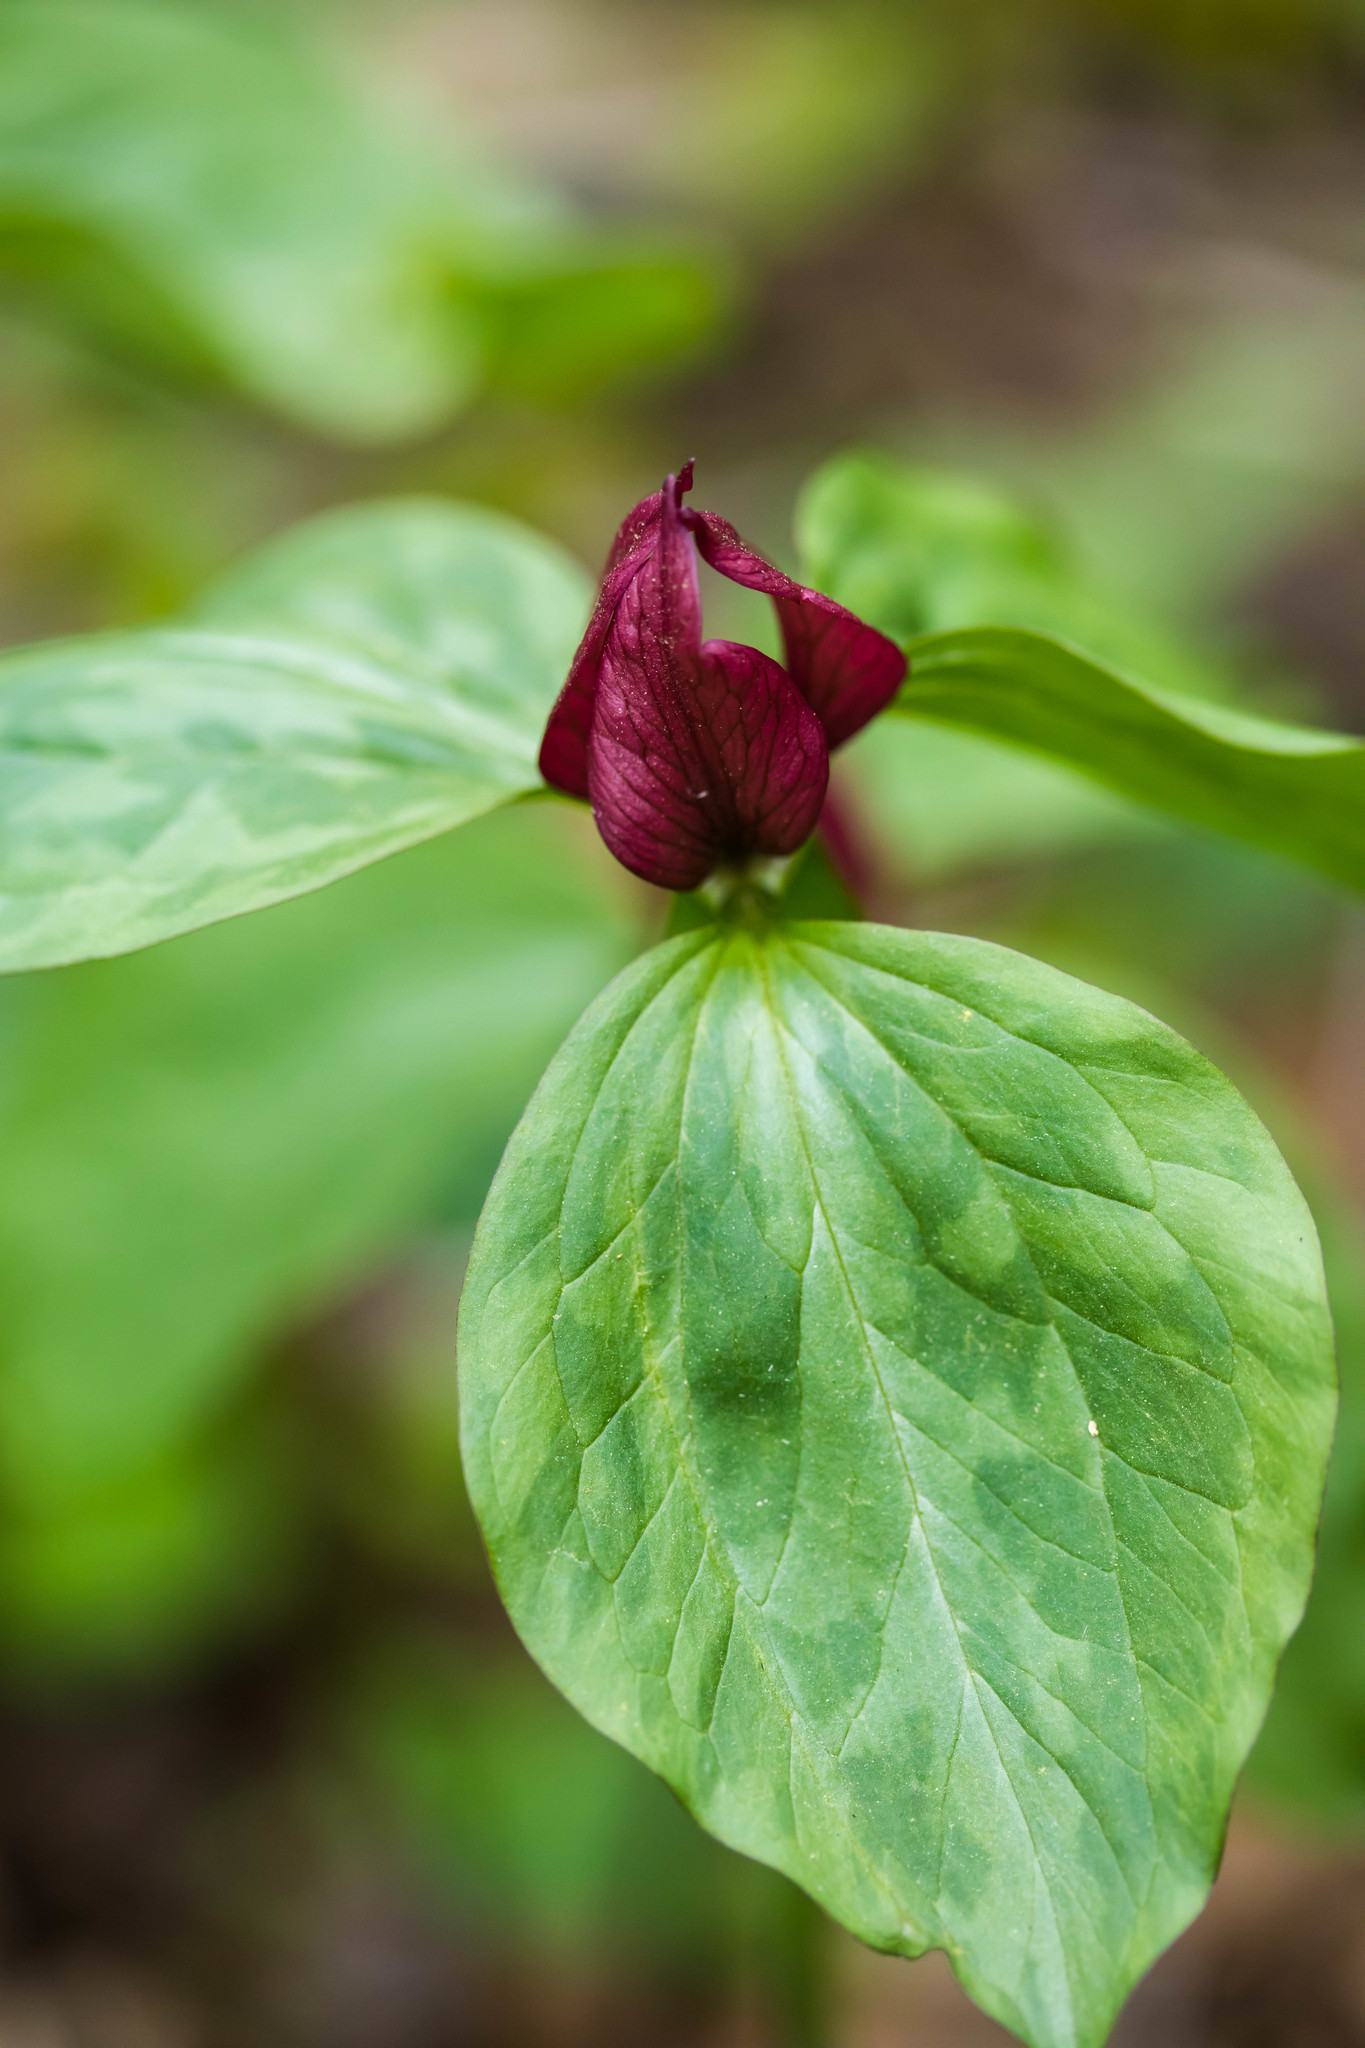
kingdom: Plantae
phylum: Tracheophyta
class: Liliopsida
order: Liliales
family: Melanthiaceae
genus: Trillium
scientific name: Trillium recurvatum
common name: Bloody butcher
